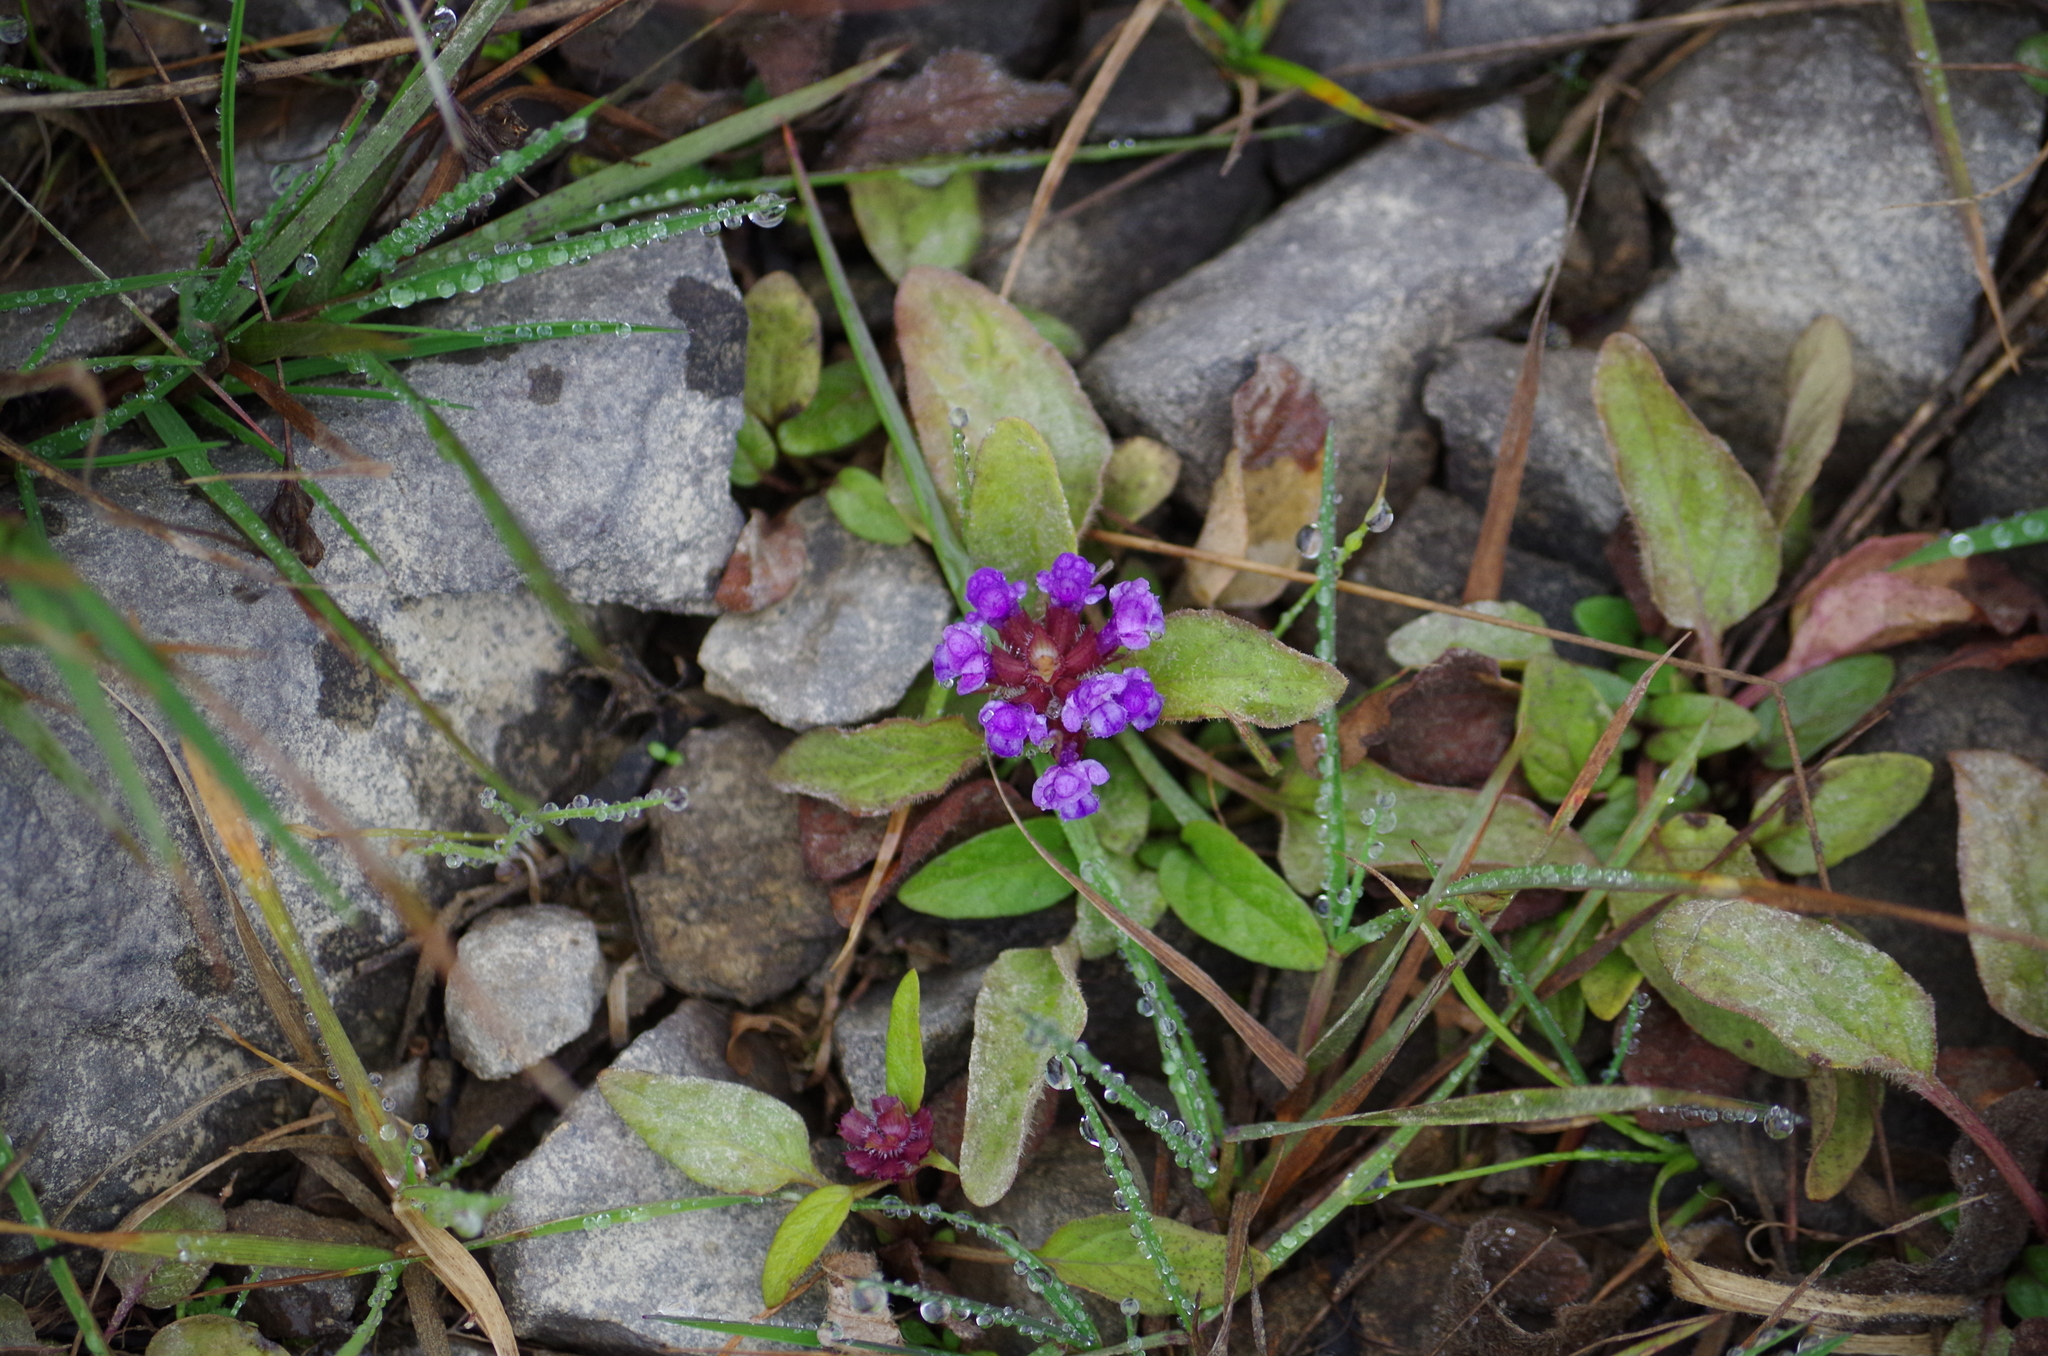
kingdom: Plantae
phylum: Tracheophyta
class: Magnoliopsida
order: Lamiales
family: Lamiaceae
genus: Prunella
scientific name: Prunella vulgaris
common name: Heal-all
